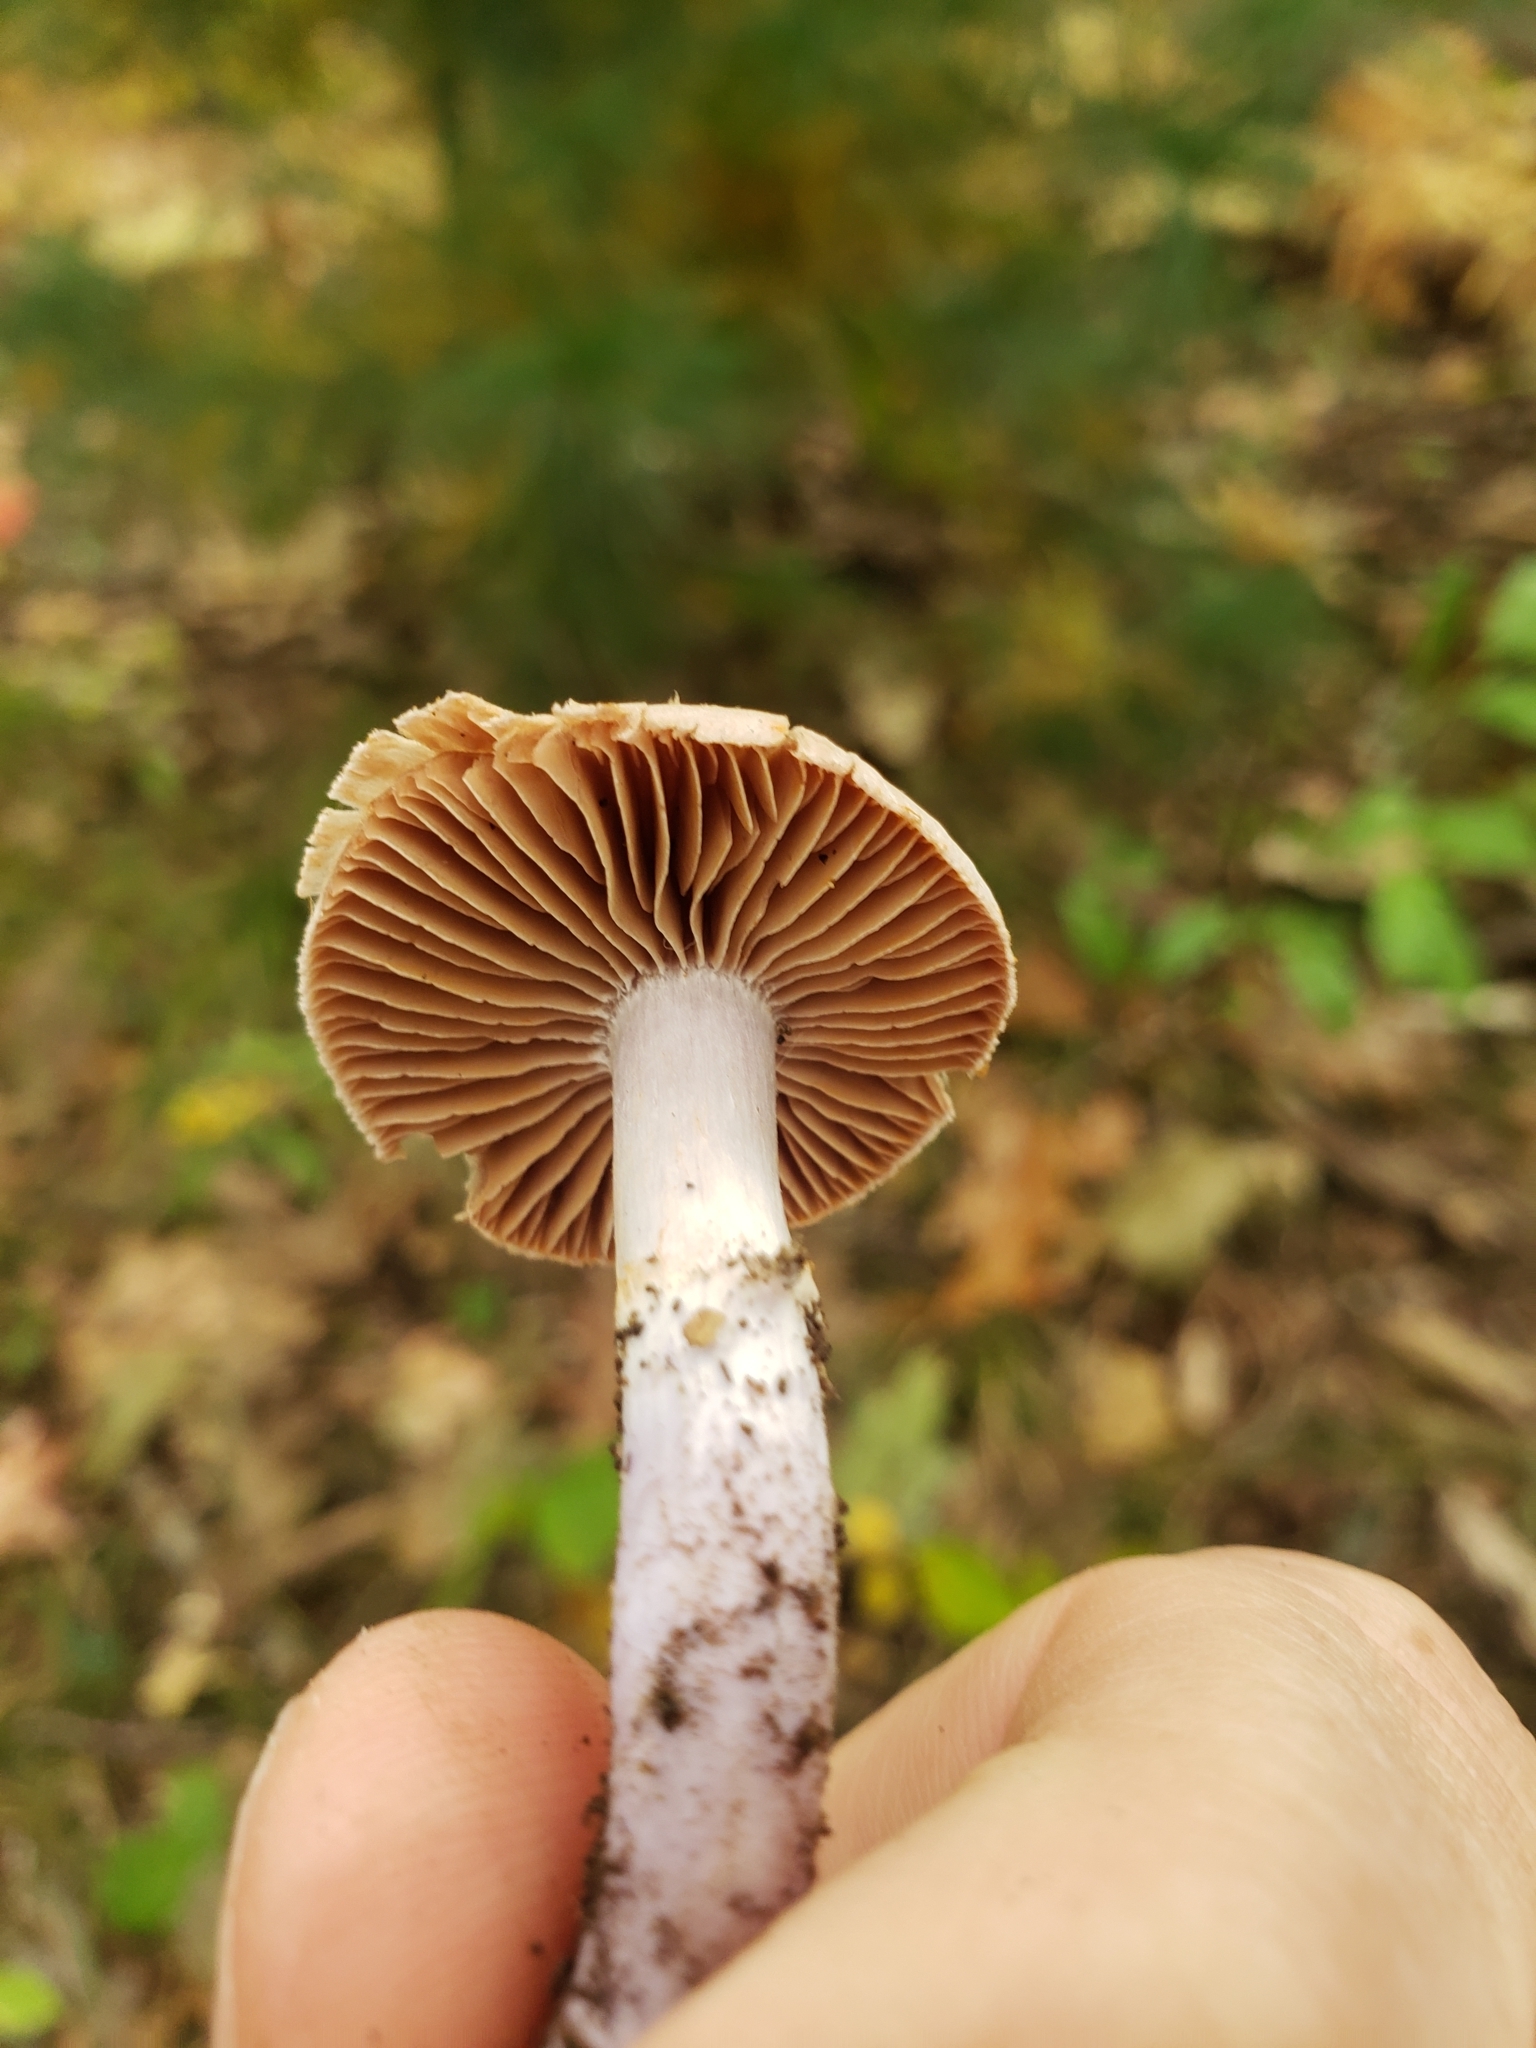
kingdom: Fungi
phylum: Basidiomycota
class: Agaricomycetes
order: Agaricales
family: Cortinariaceae
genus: Cortinarius
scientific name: Cortinarius
